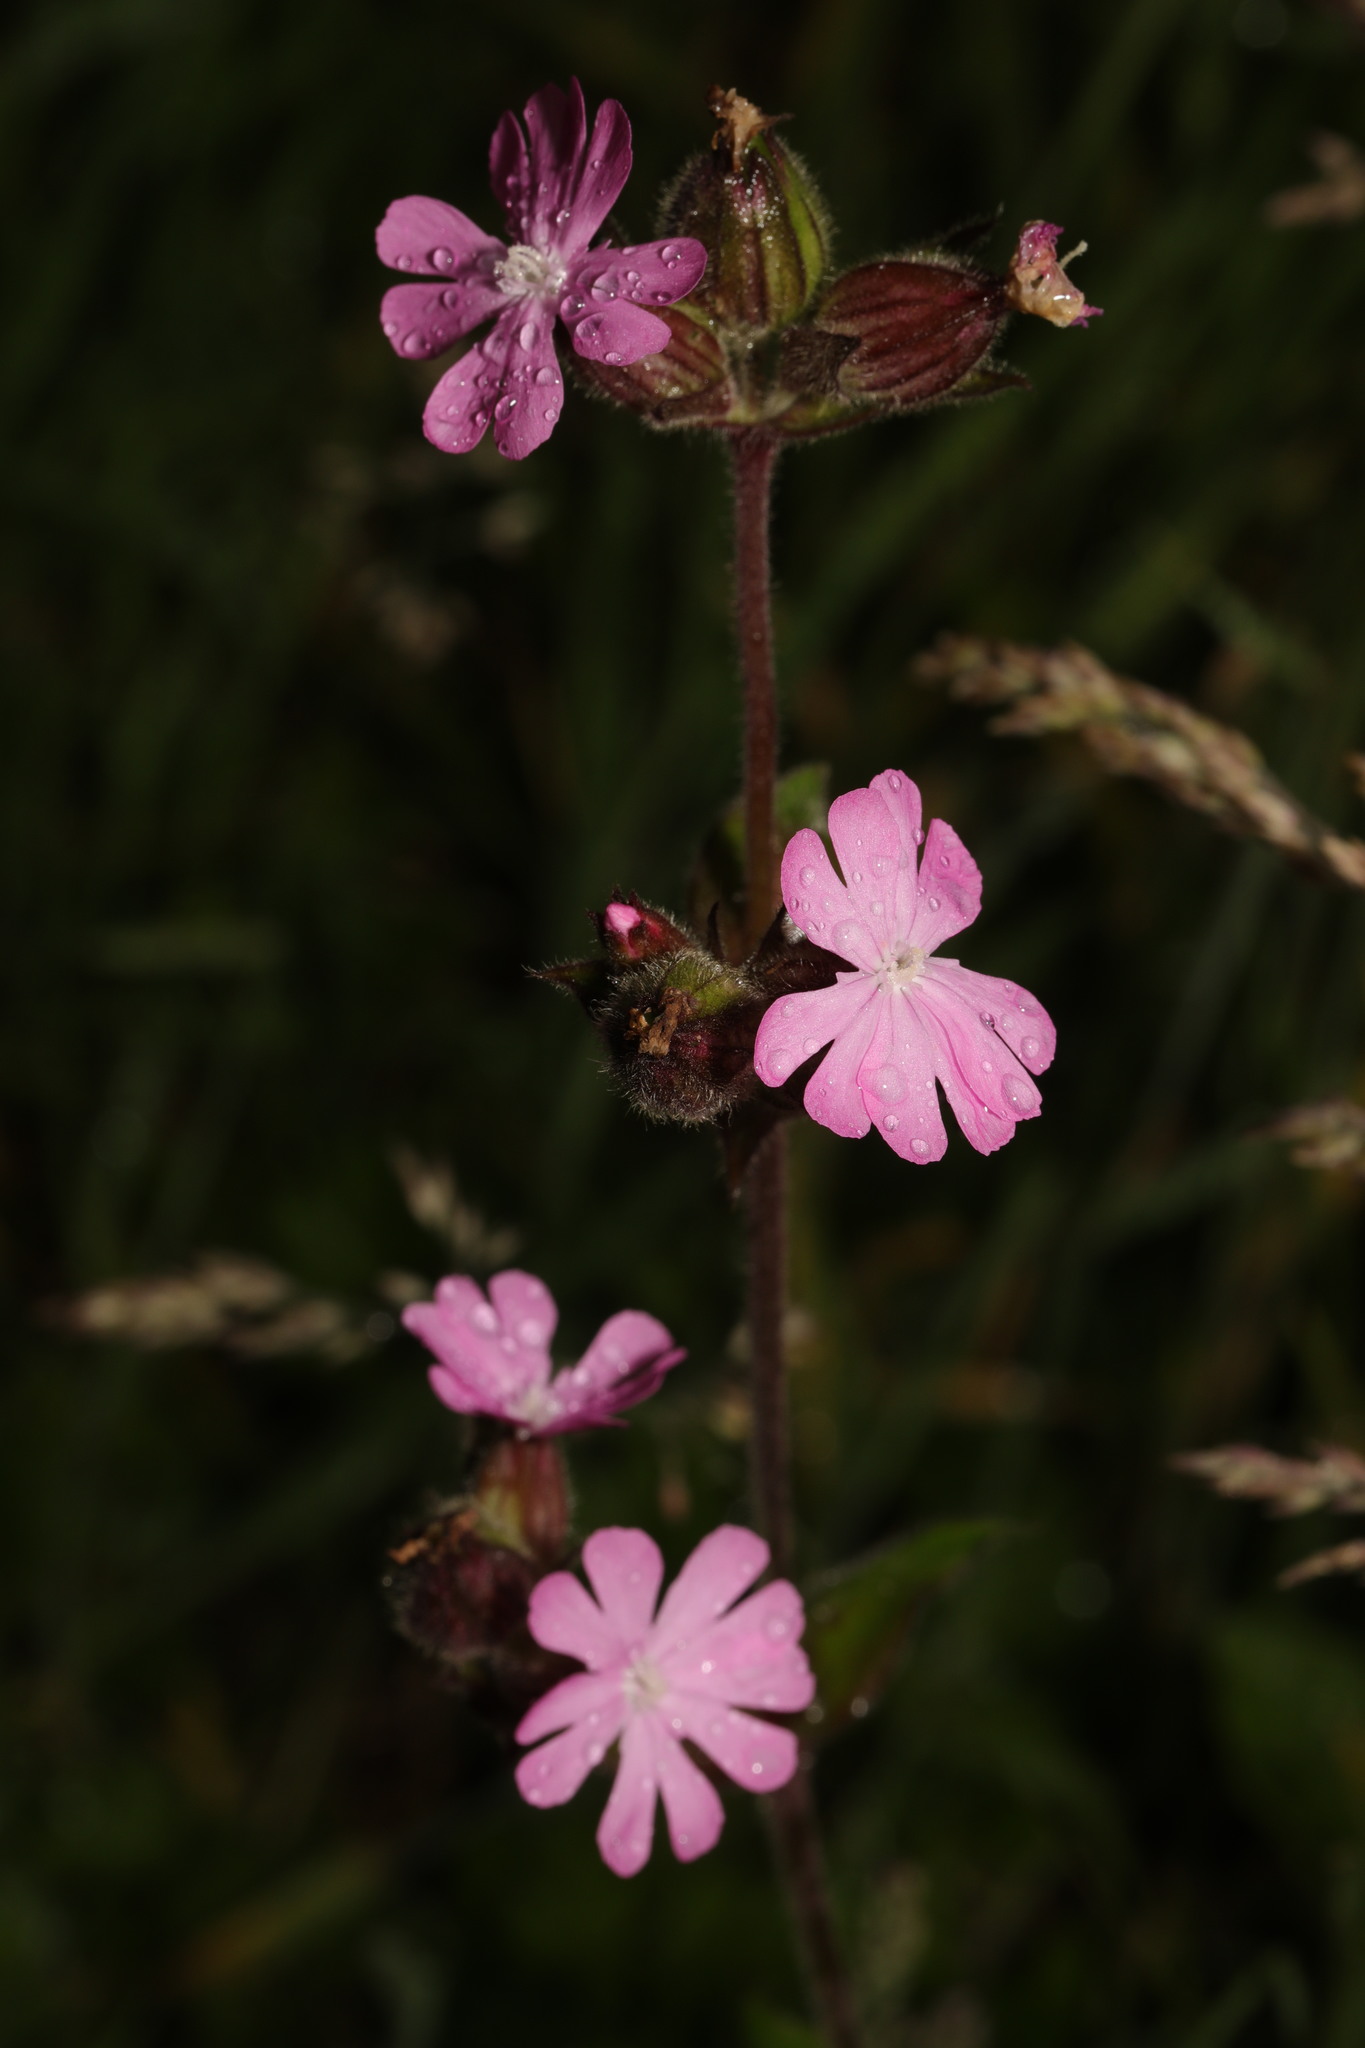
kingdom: Plantae
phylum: Tracheophyta
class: Magnoliopsida
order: Caryophyllales
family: Caryophyllaceae
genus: Silene
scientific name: Silene dioica
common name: Red campion
